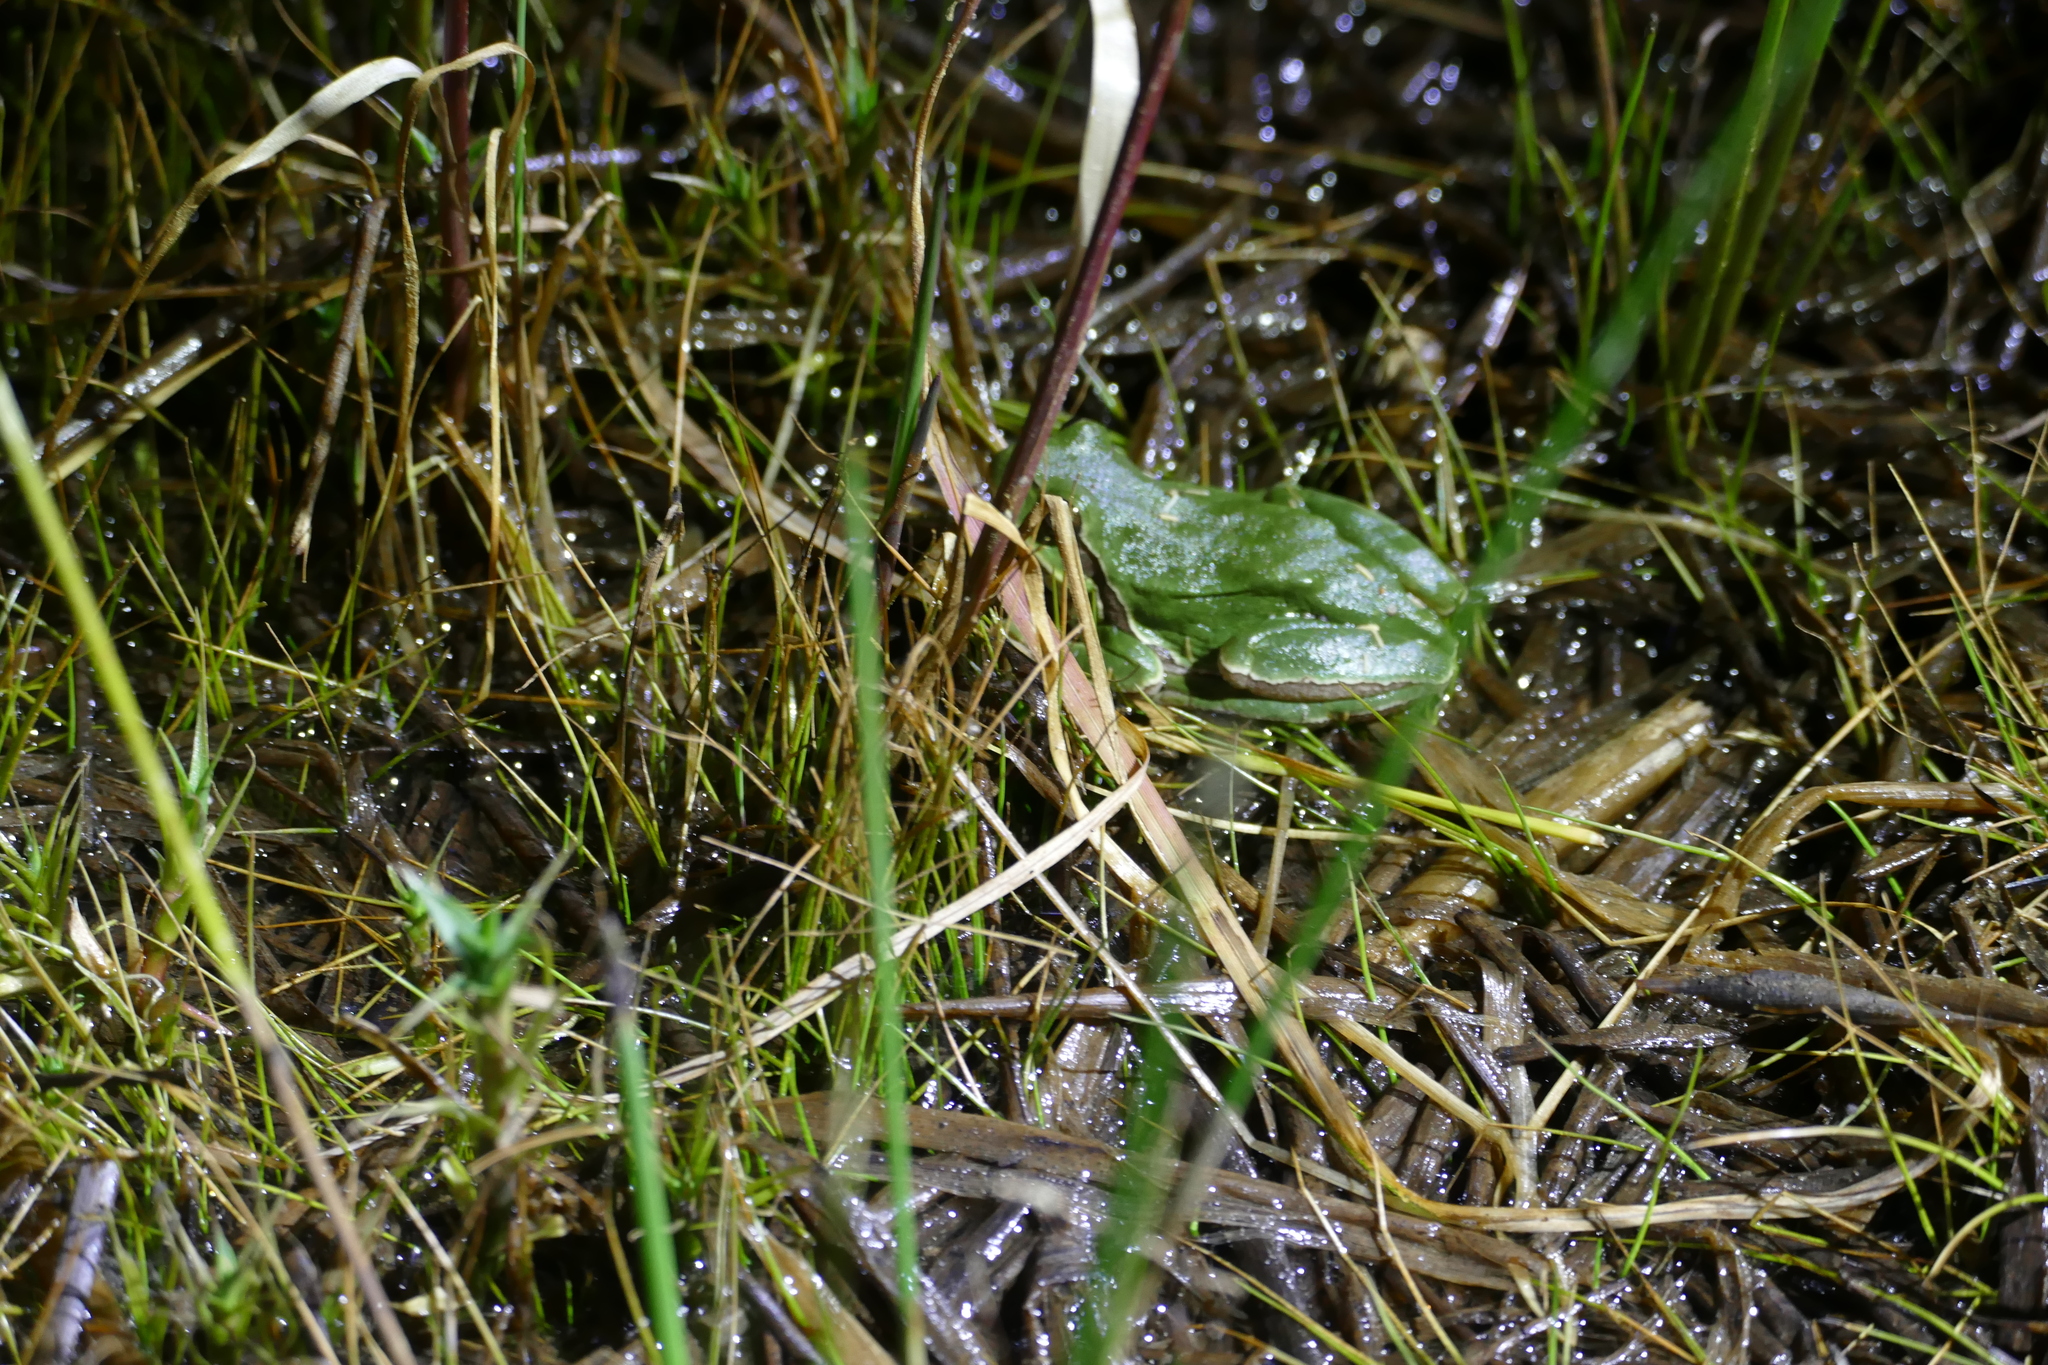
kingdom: Animalia
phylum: Chordata
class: Amphibia
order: Anura
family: Hylidae
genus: Hyla
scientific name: Hyla molleri
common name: Iberian tree frog
